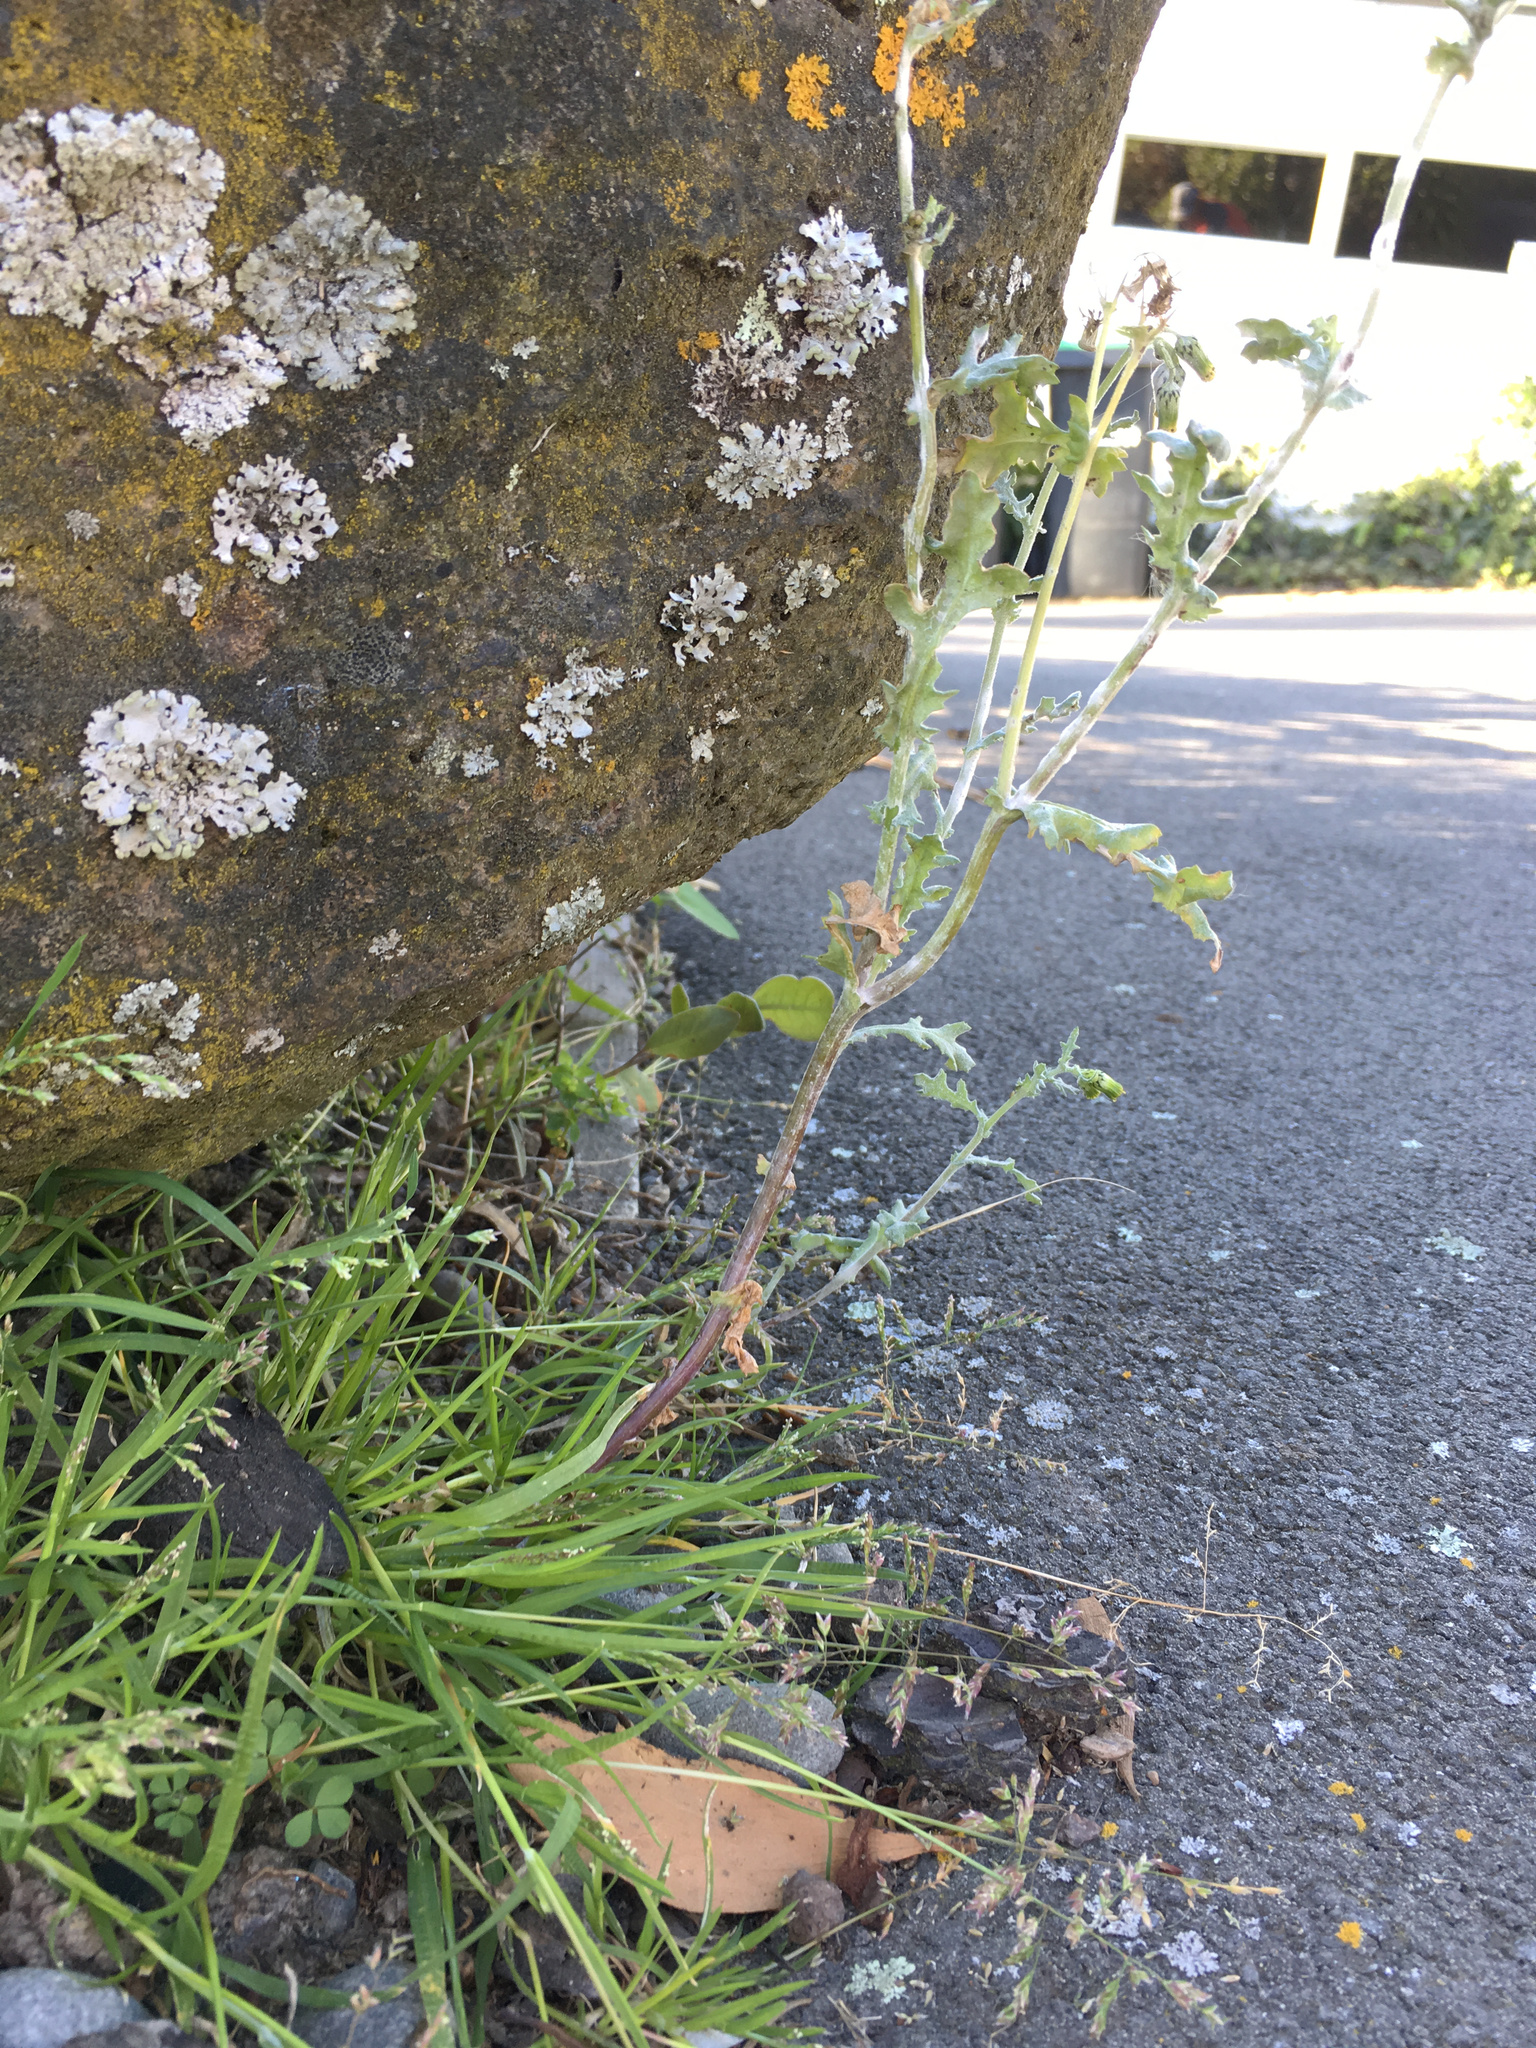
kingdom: Plantae
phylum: Tracheophyta
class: Magnoliopsida
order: Asterales
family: Asteraceae
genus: Senecio
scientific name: Senecio vulgaris
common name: Old-man-in-the-spring
